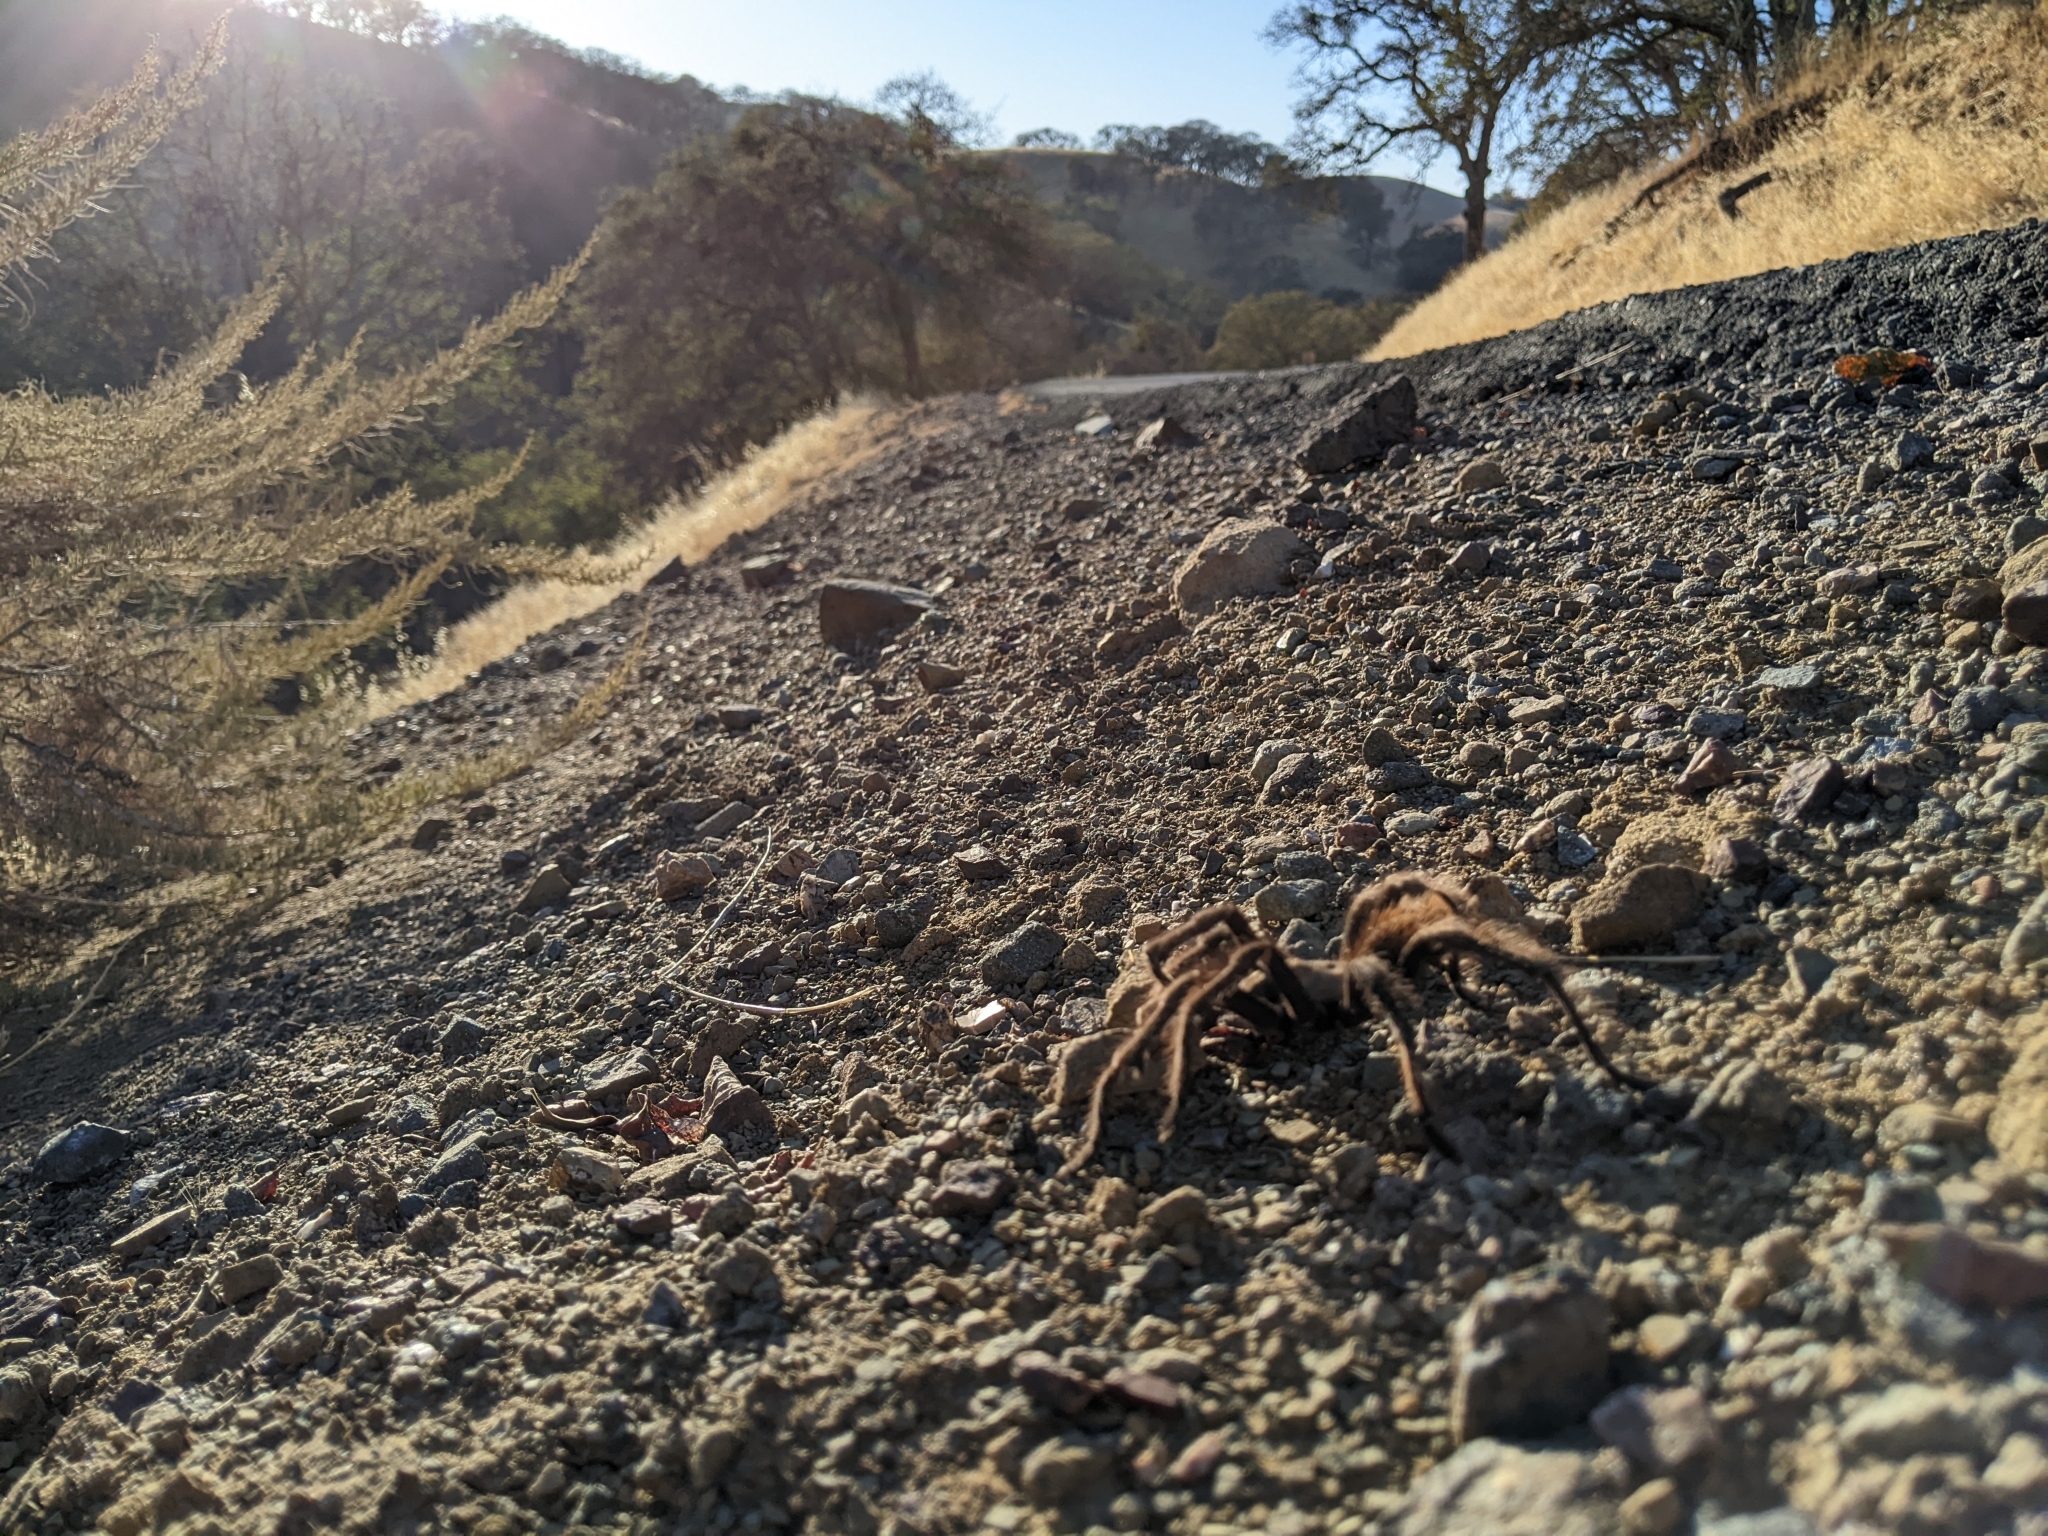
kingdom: Animalia
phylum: Arthropoda
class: Arachnida
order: Araneae
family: Theraphosidae
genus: Aphonopelma
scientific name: Aphonopelma iodius
